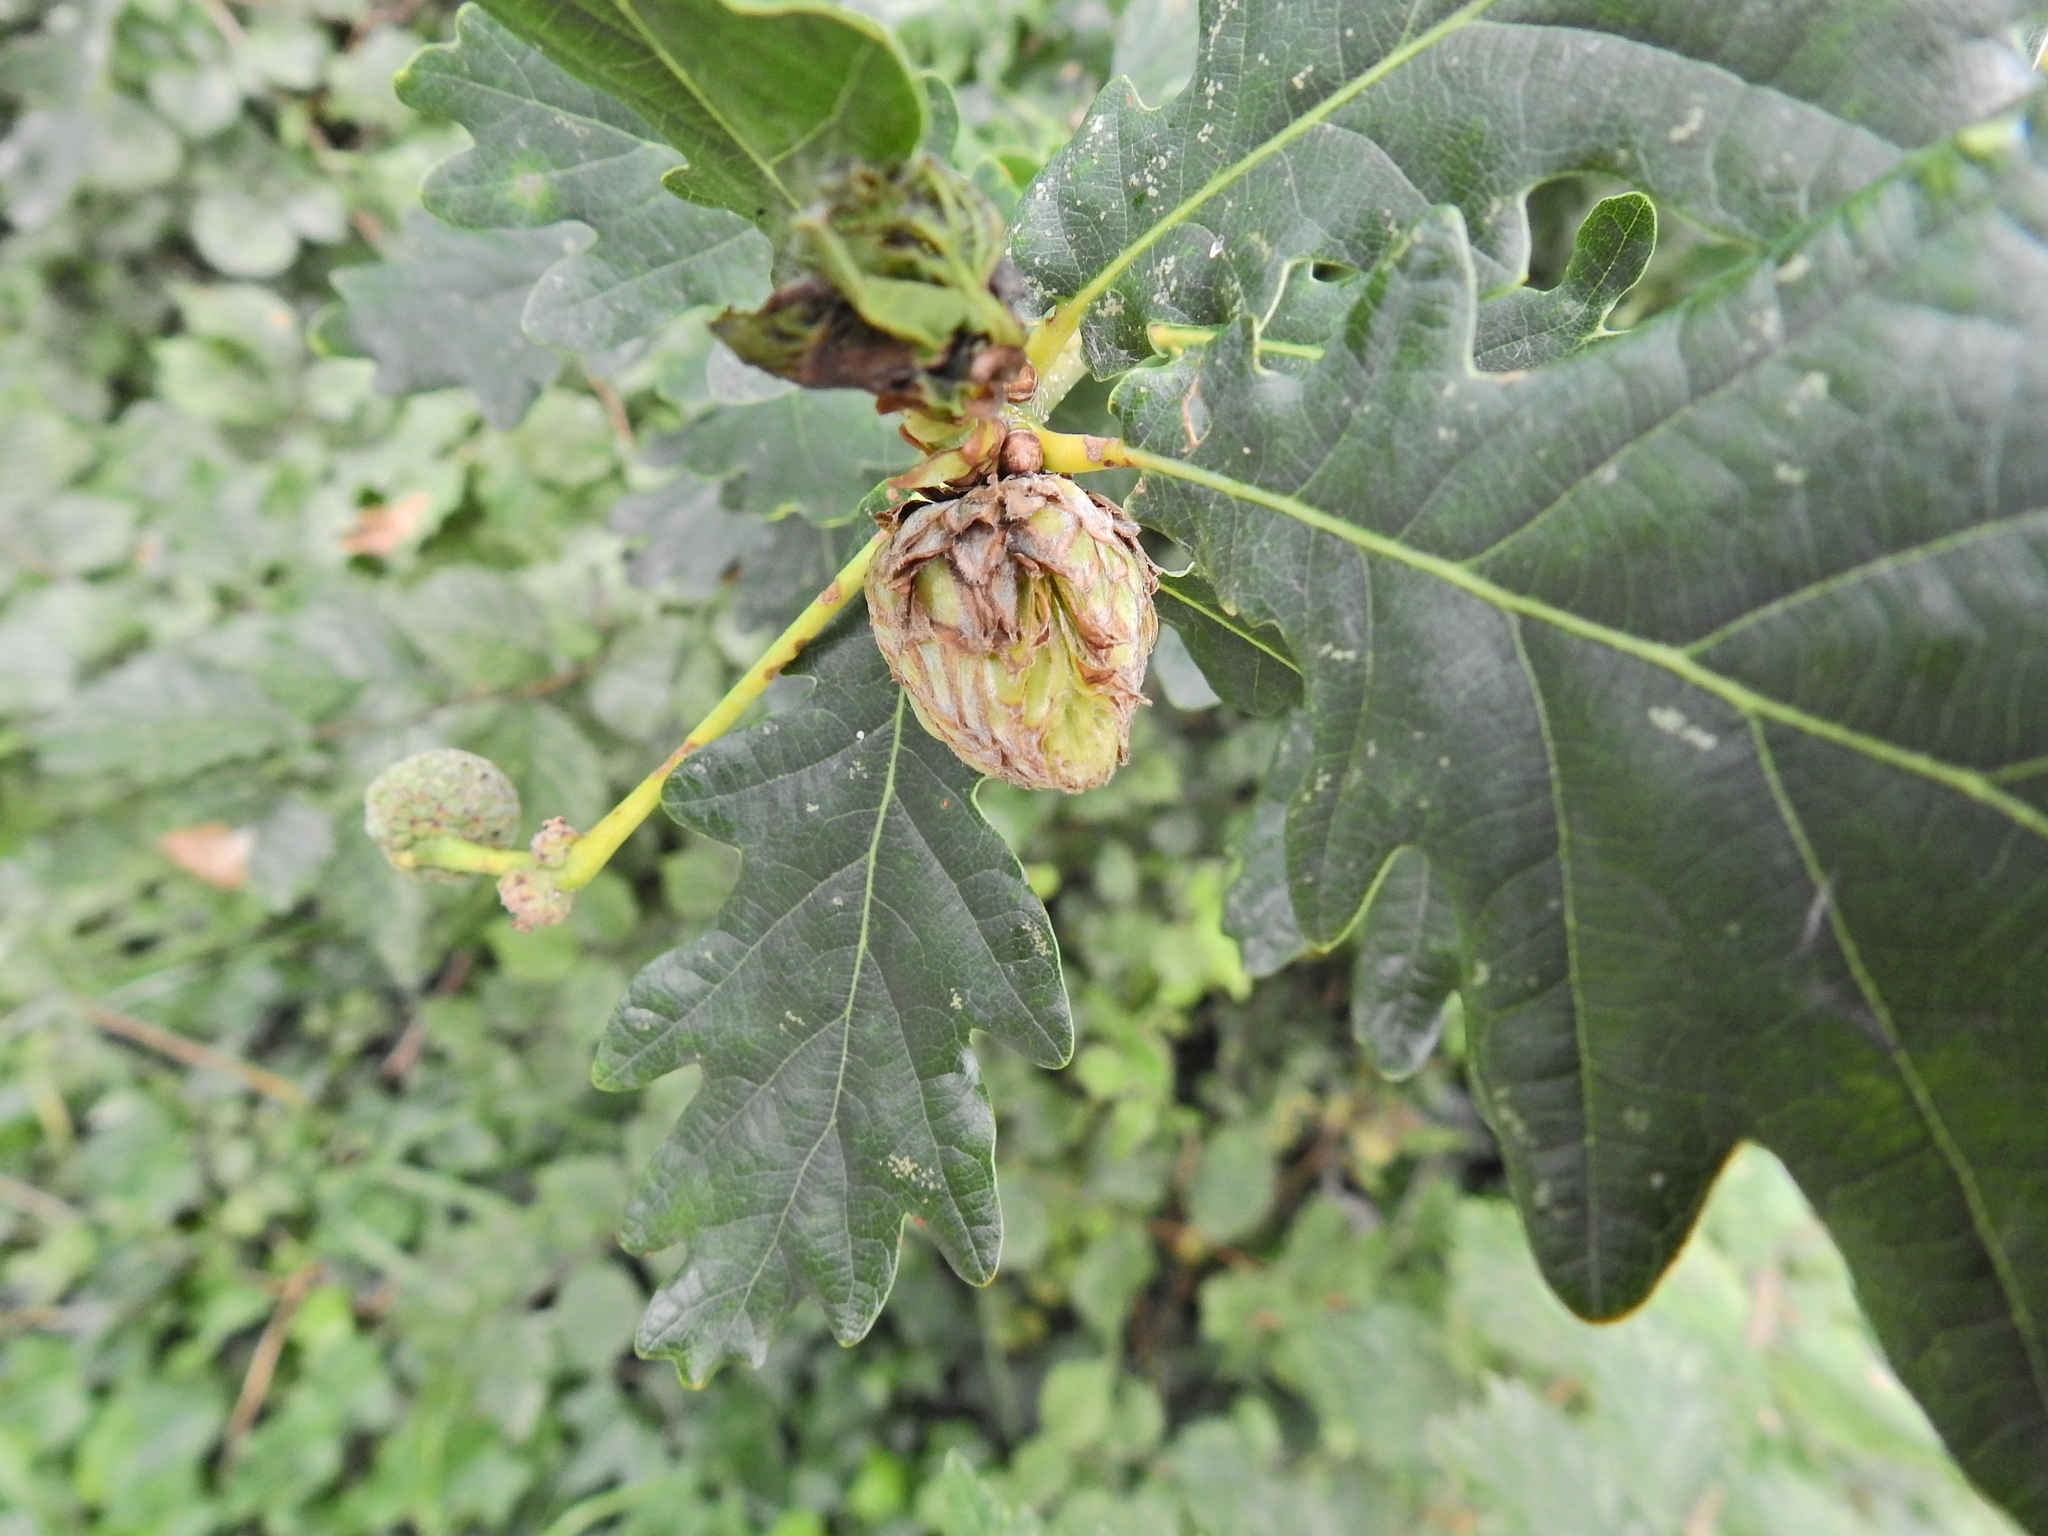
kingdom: Animalia
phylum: Arthropoda
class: Insecta
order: Hymenoptera
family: Cynipidae
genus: Andricus
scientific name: Andricus foecundatrix
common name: Artichoke gall
